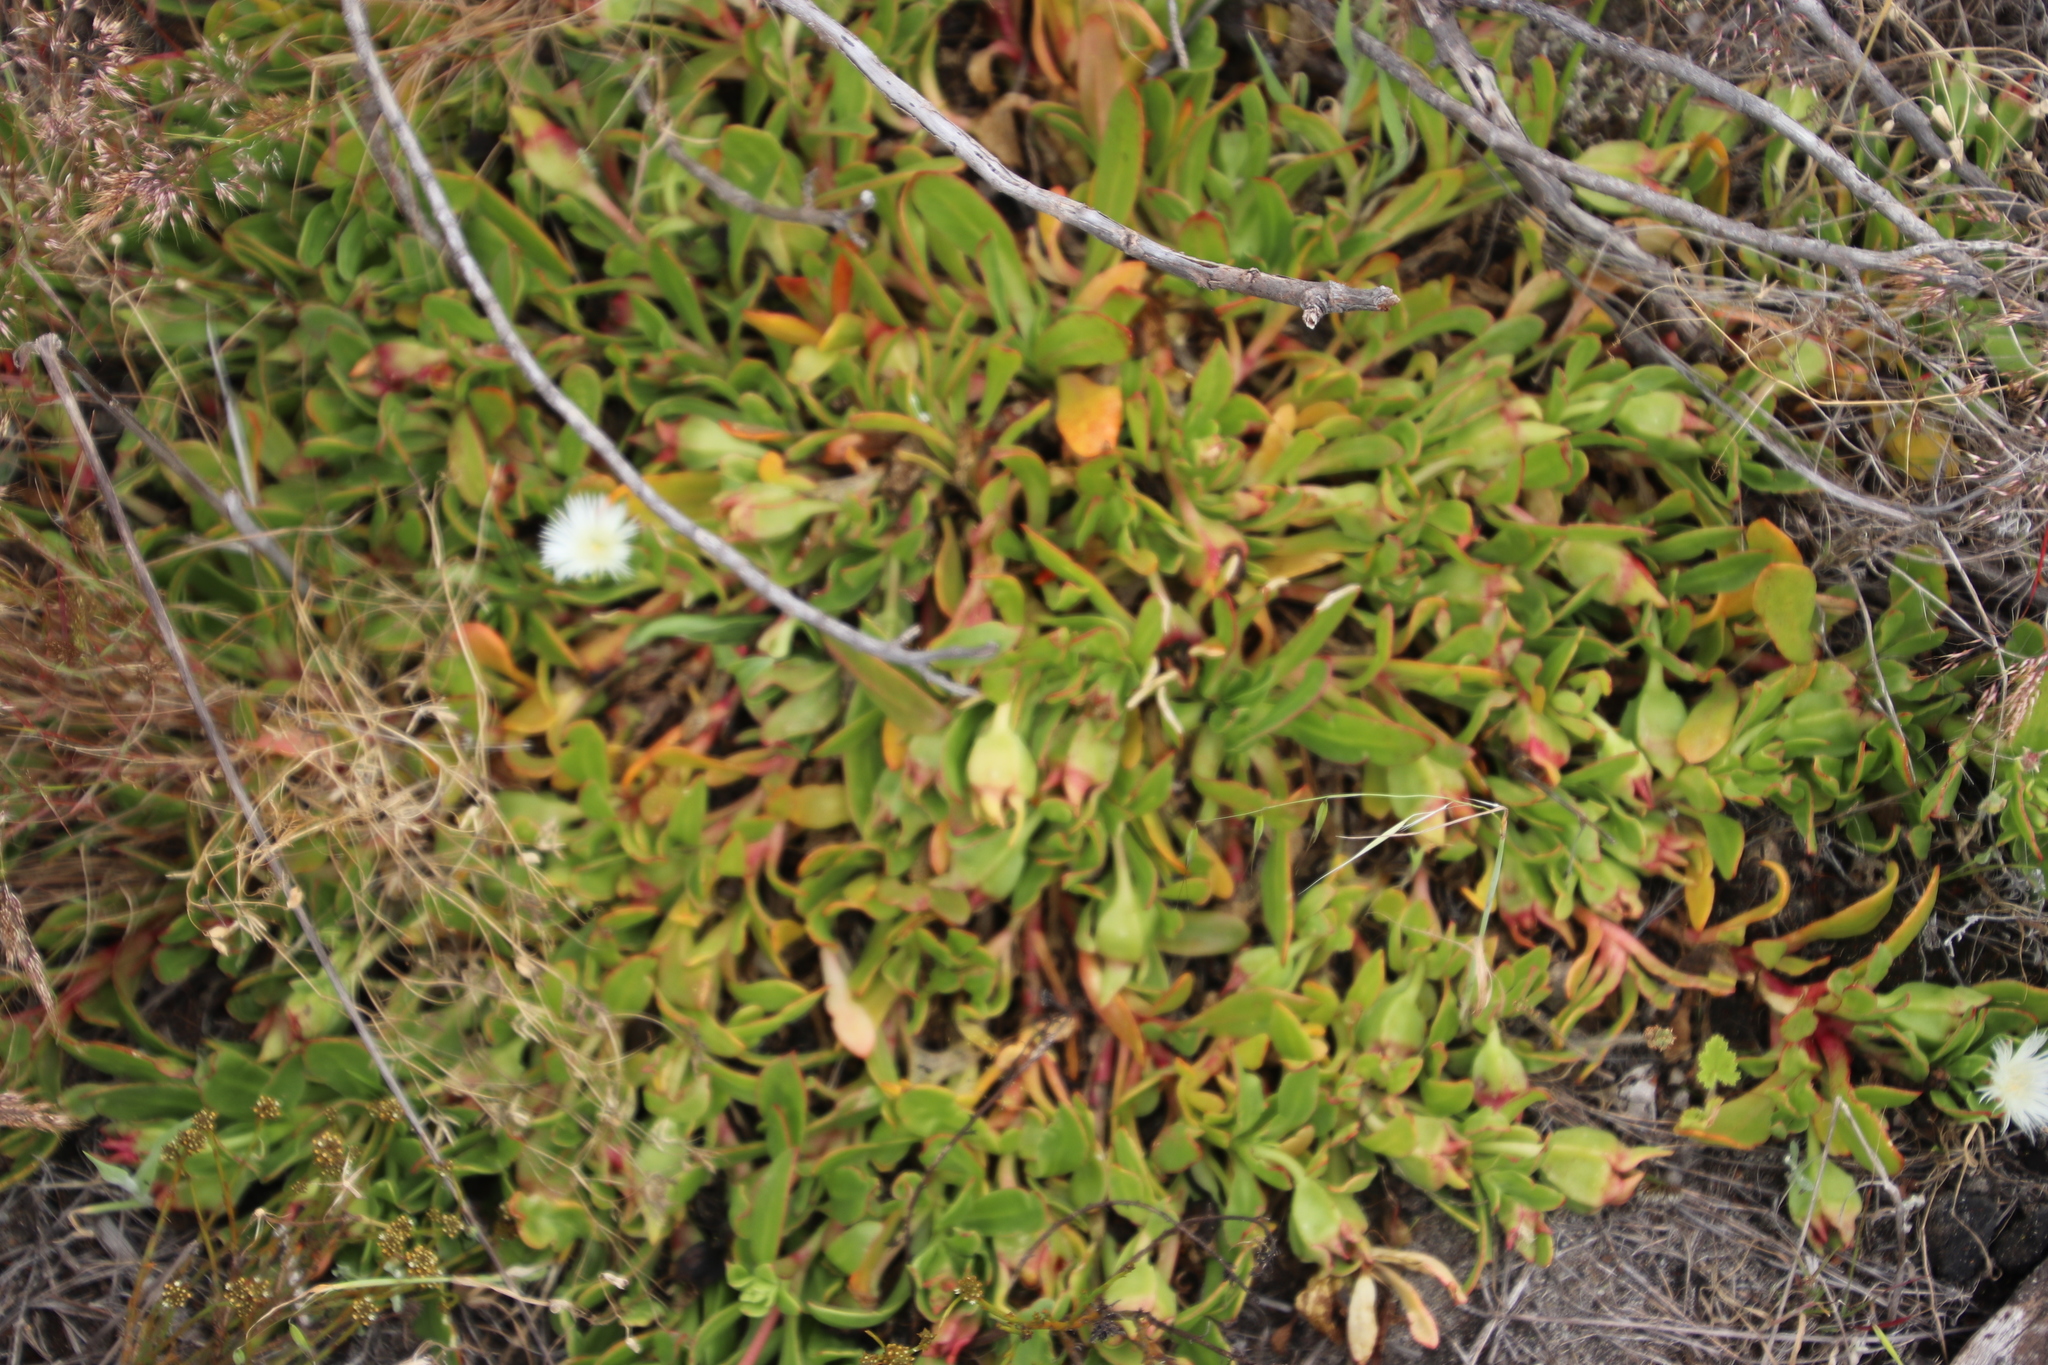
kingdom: Plantae
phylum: Tracheophyta
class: Magnoliopsida
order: Caryophyllales
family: Aizoaceae
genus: Skiatophytum
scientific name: Skiatophytum tripolium
